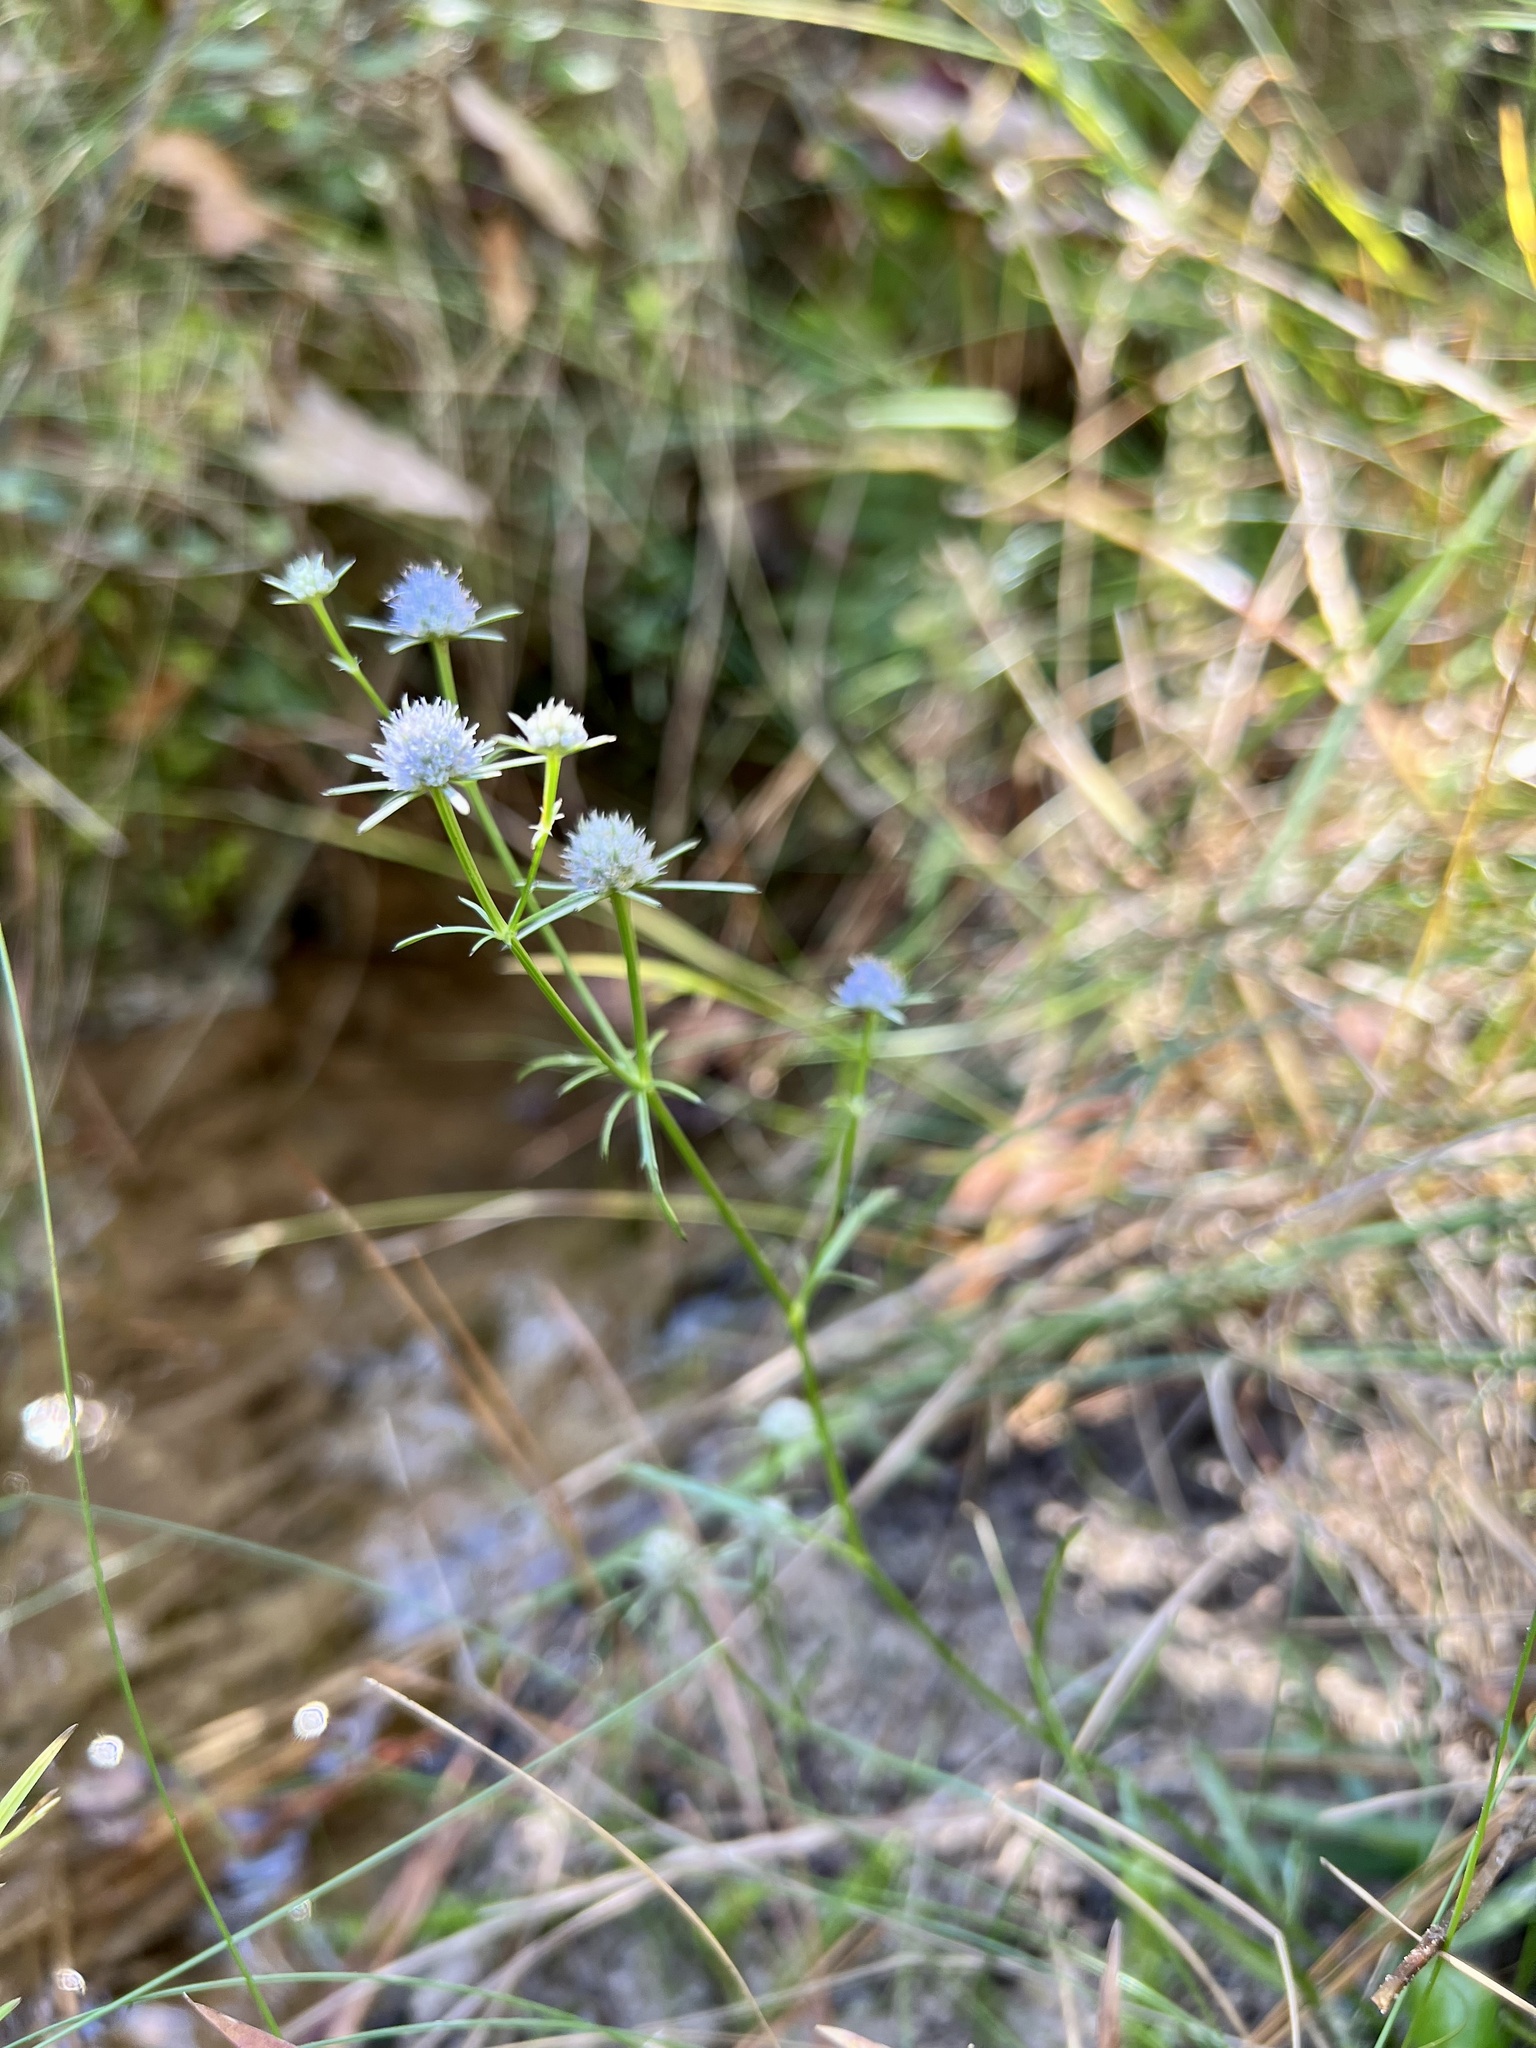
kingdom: Plantae
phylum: Tracheophyta
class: Magnoliopsida
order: Apiales
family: Apiaceae
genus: Eryngium
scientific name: Eryngium integrifolium
